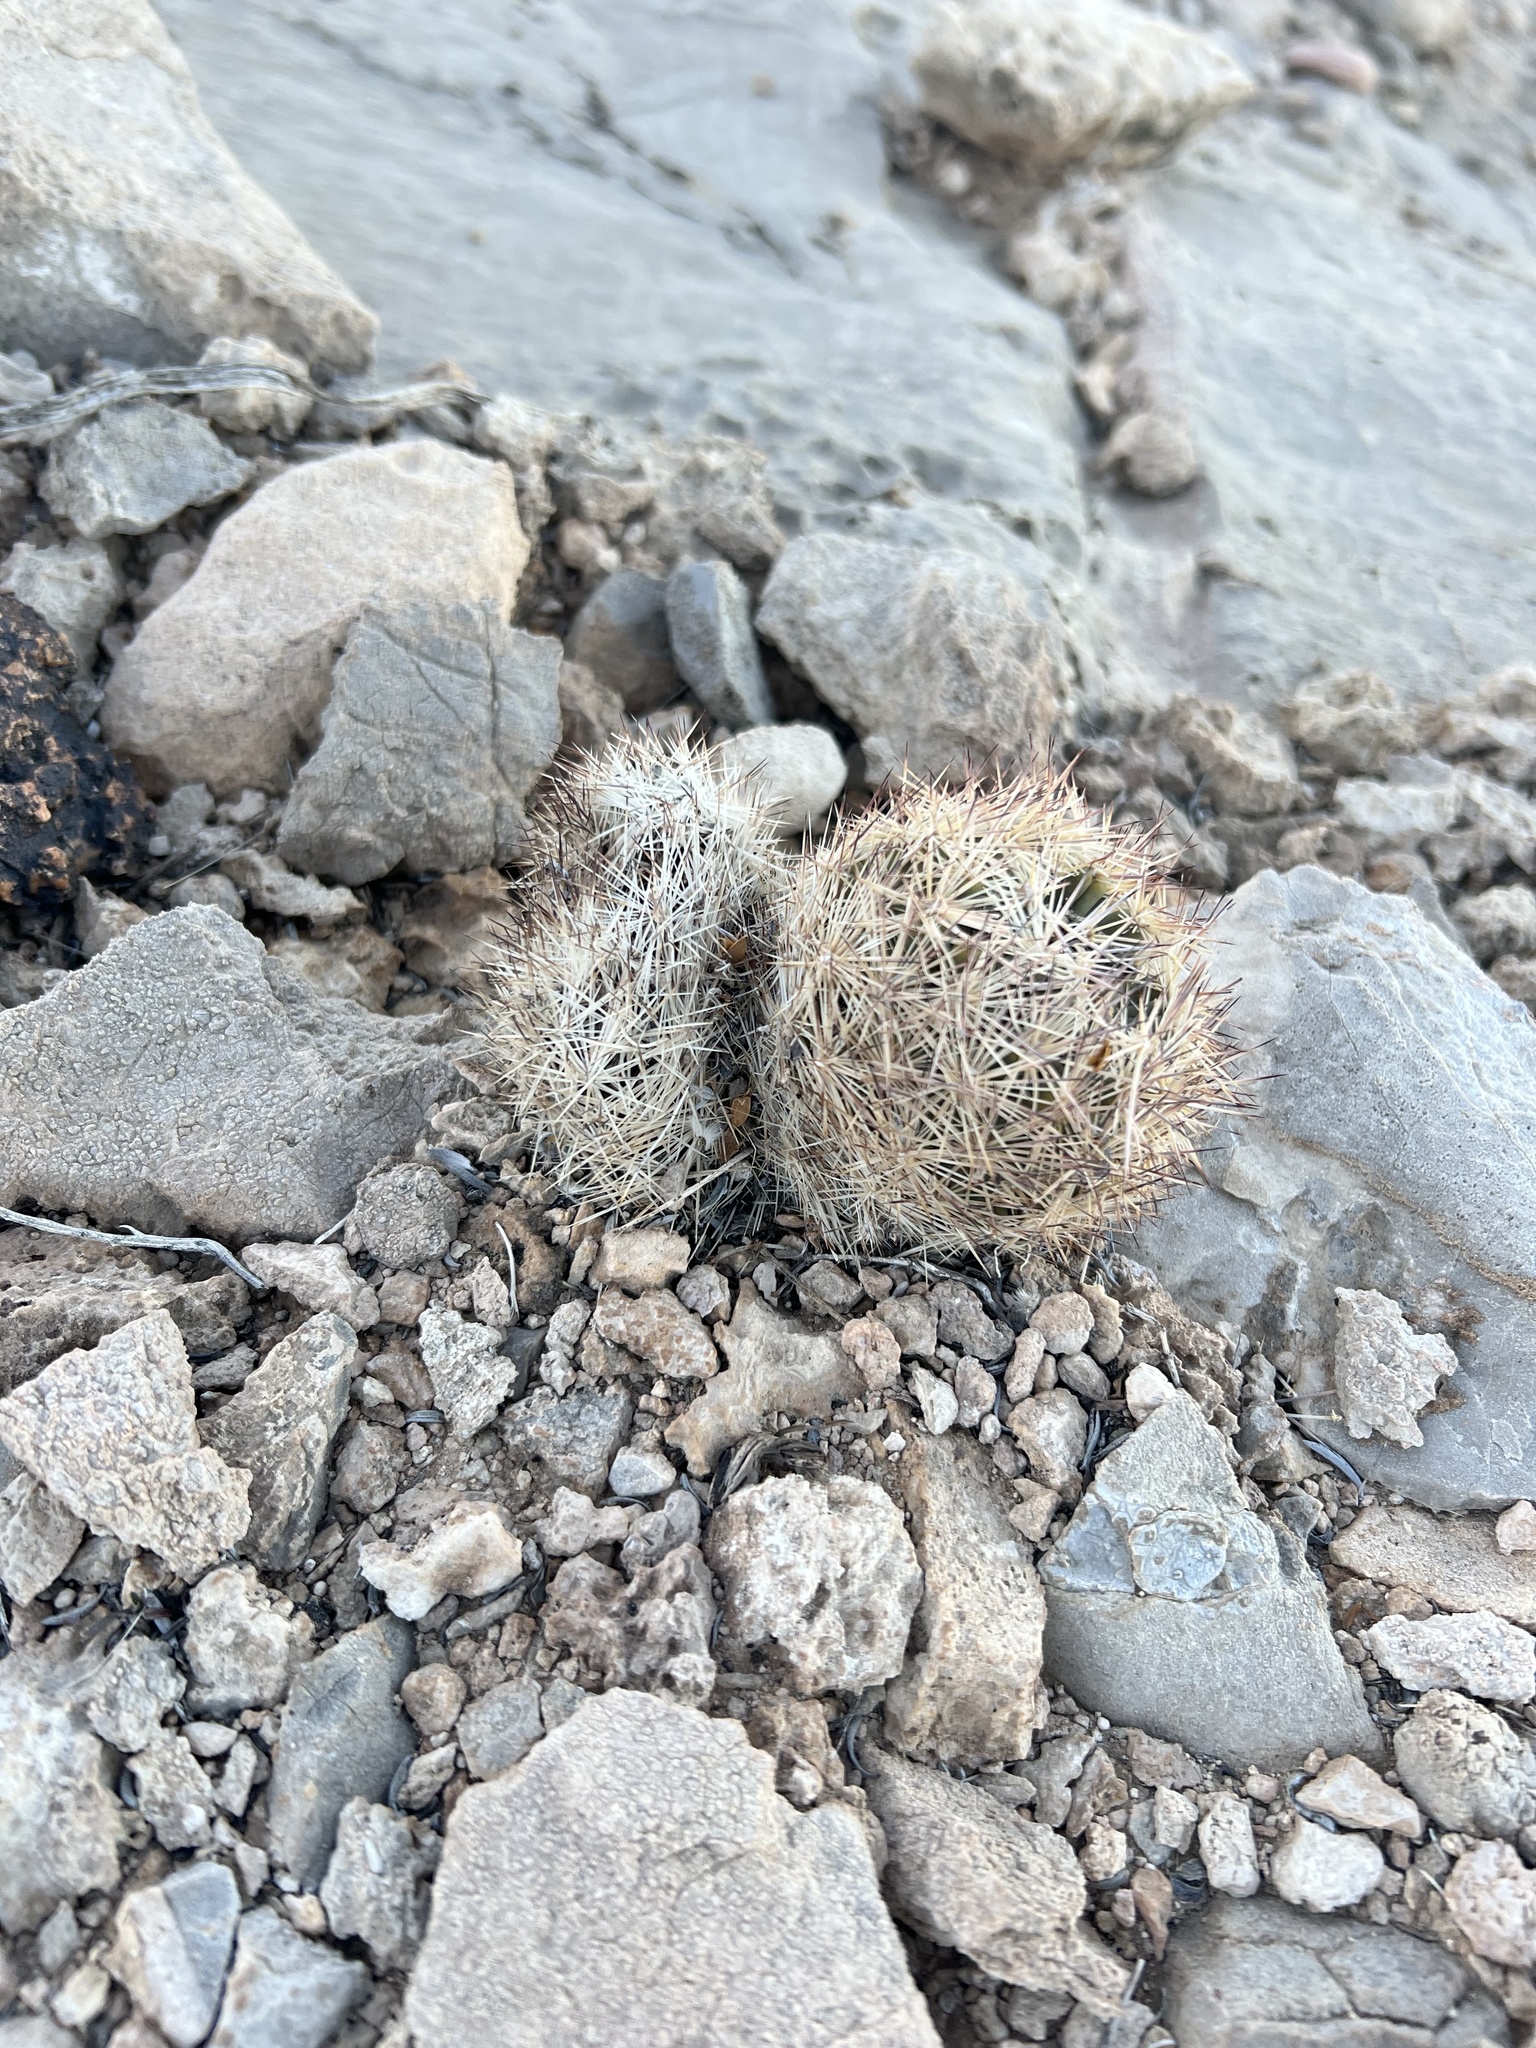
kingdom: Plantae
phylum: Tracheophyta
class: Magnoliopsida
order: Caryophyllales
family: Cactaceae
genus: Pelecyphora
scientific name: Pelecyphora dasyacantha
